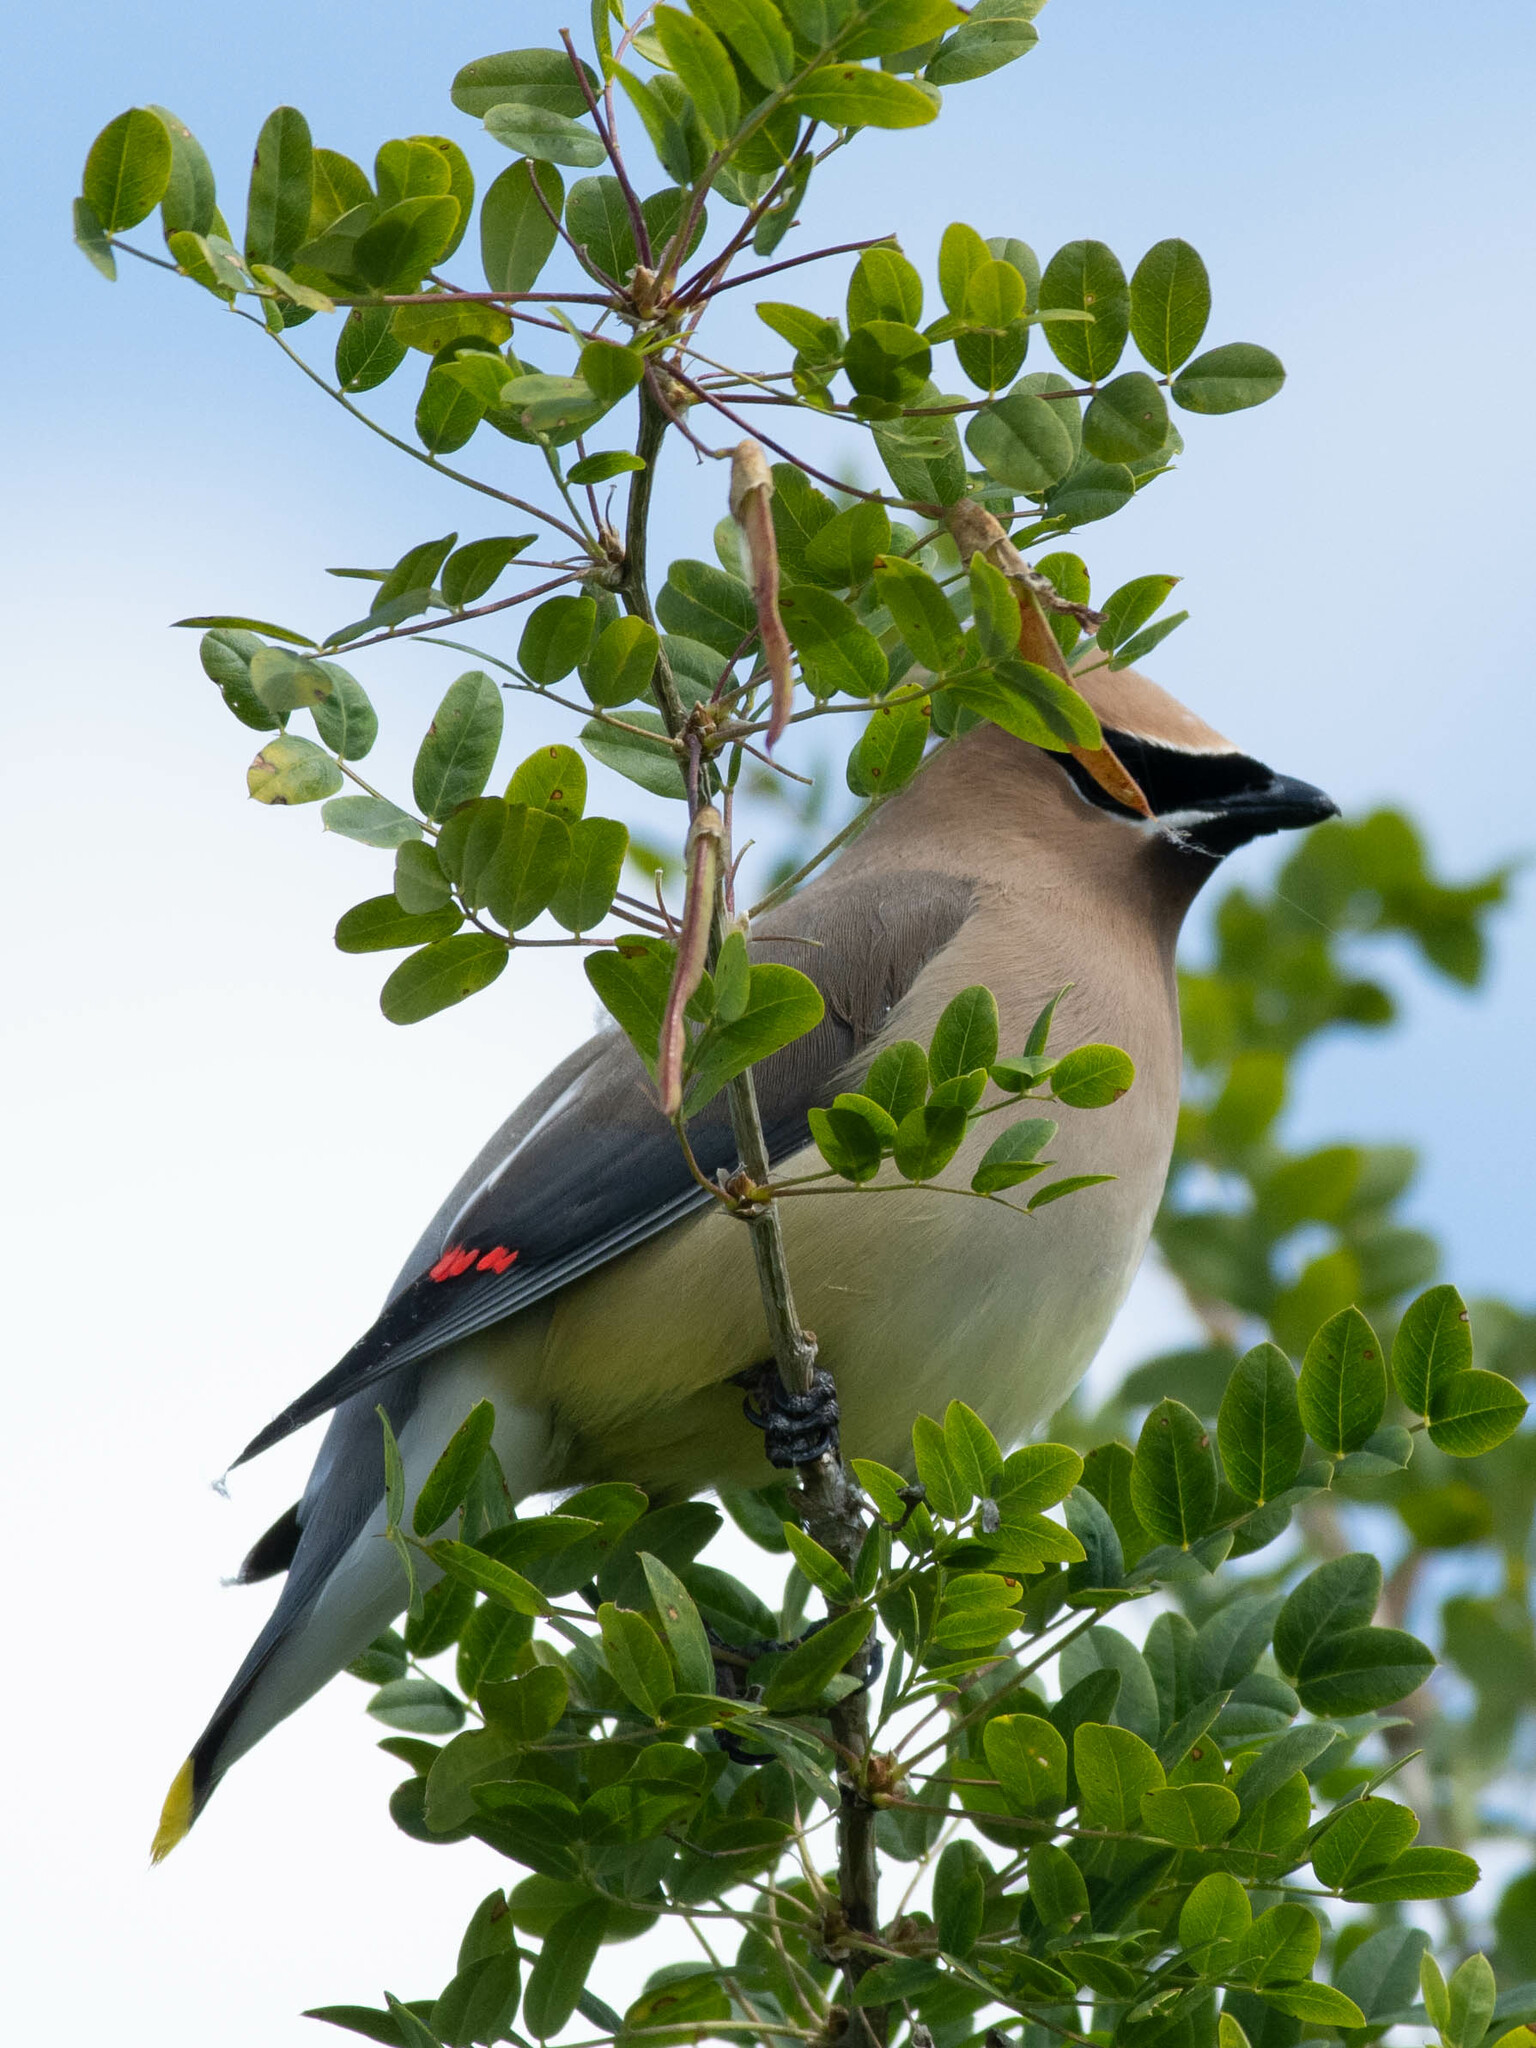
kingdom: Animalia
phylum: Chordata
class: Aves
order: Passeriformes
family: Bombycillidae
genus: Bombycilla
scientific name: Bombycilla cedrorum
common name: Cedar waxwing
